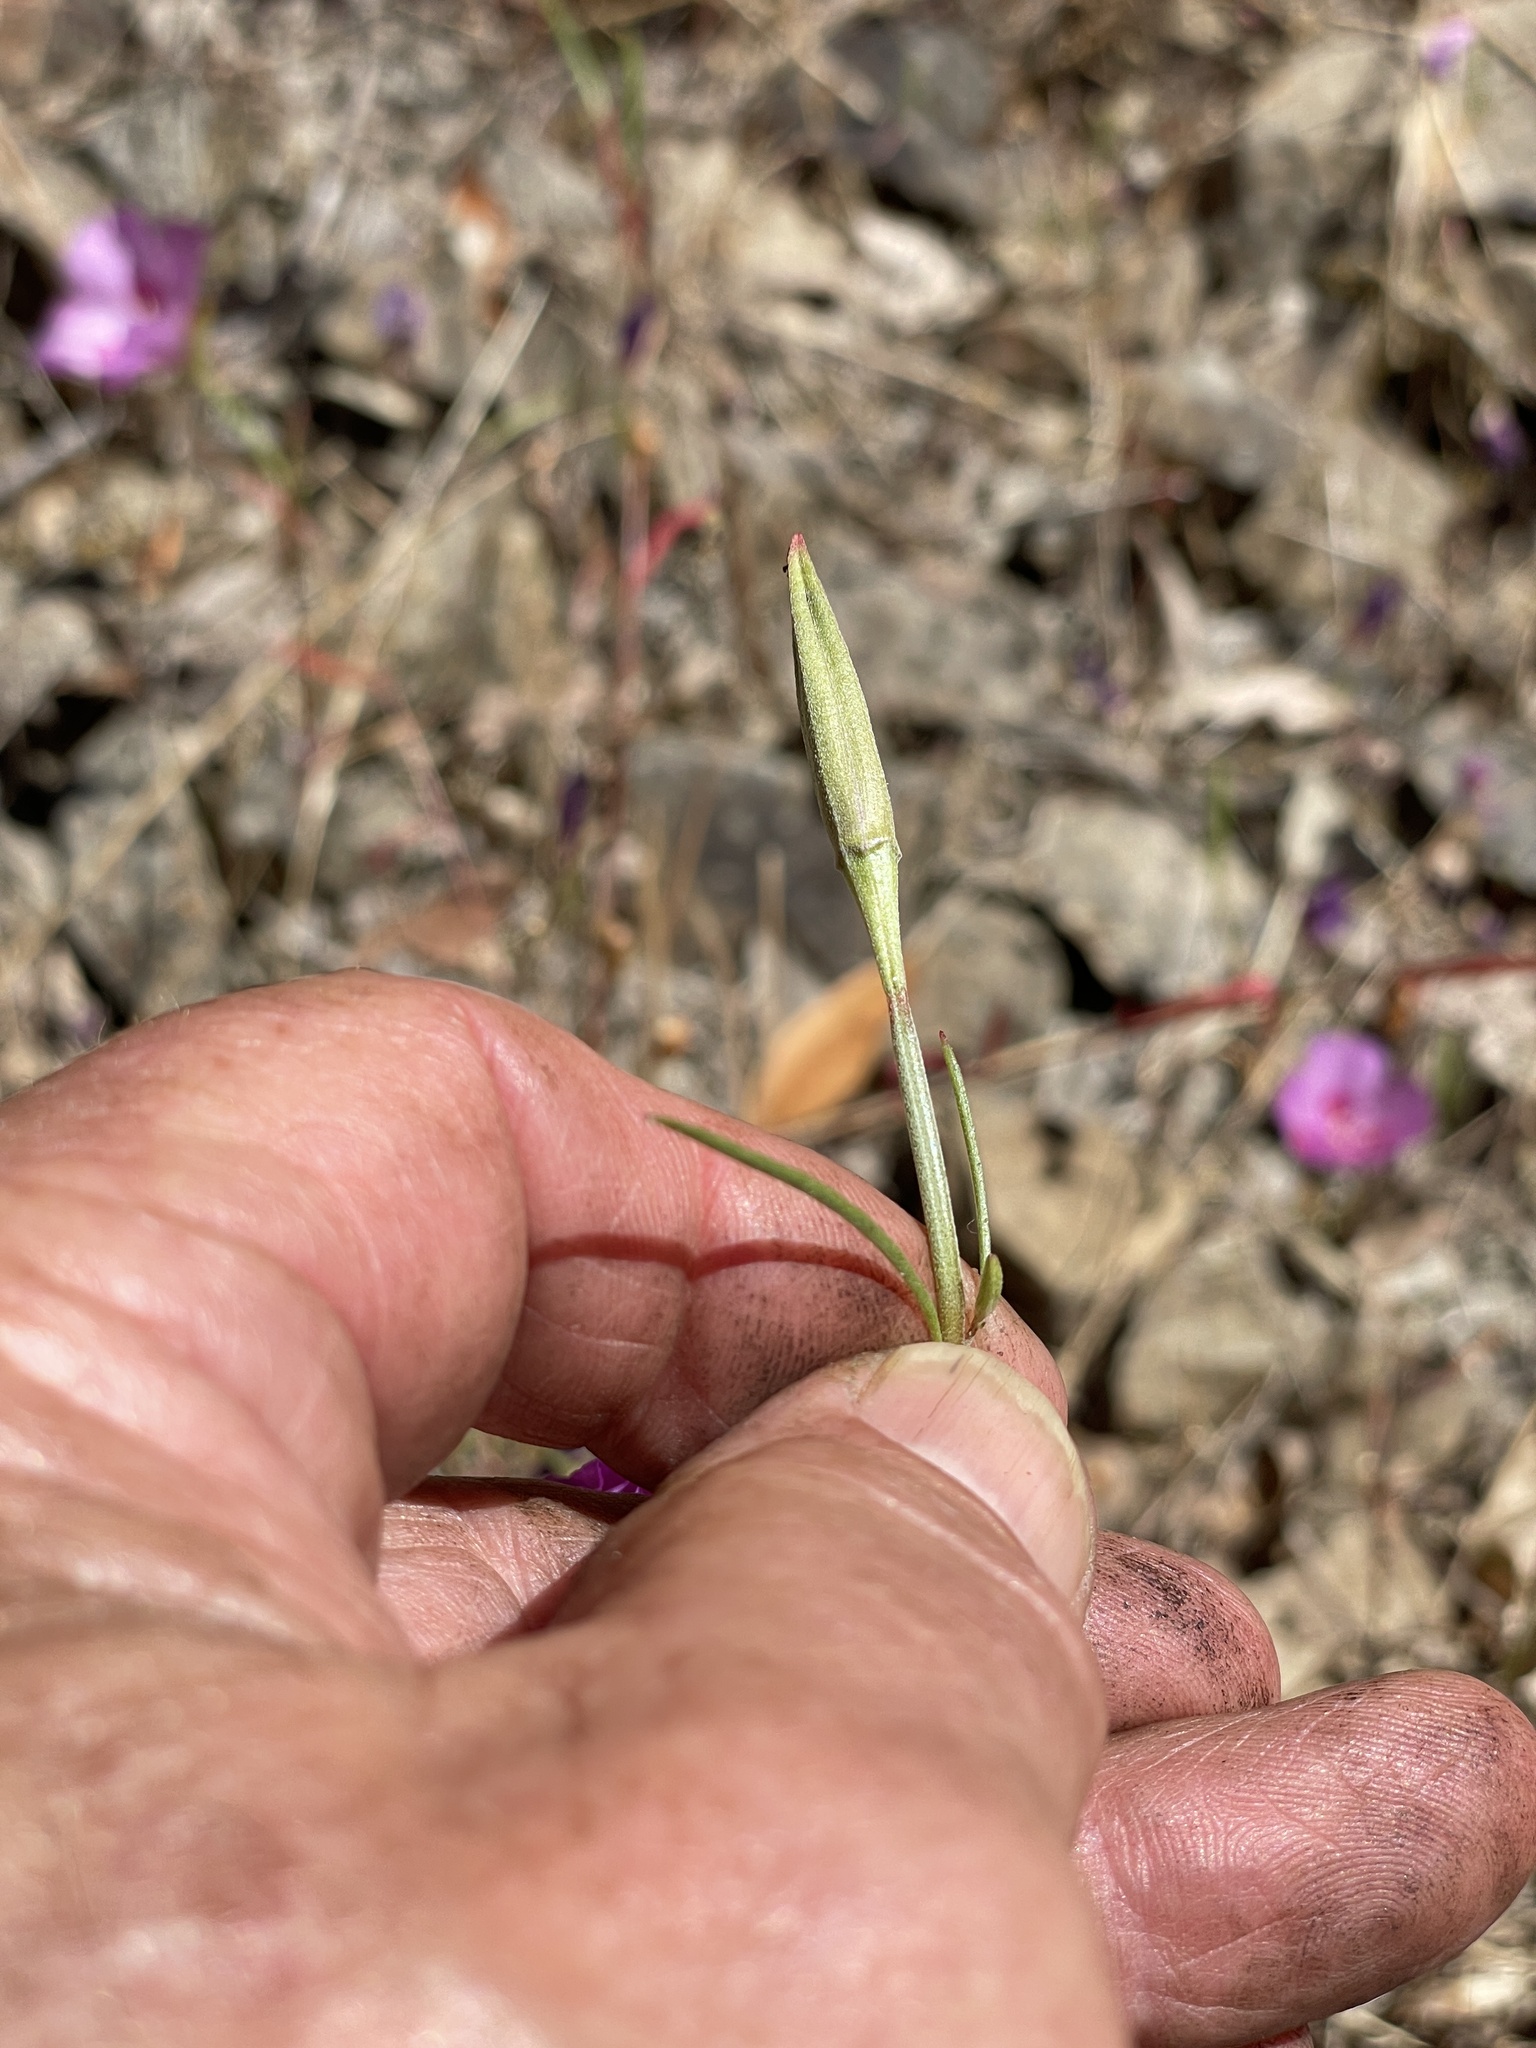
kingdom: Plantae
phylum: Tracheophyta
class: Magnoliopsida
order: Myrtales
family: Onagraceae
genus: Clarkia
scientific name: Clarkia amoena
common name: Godetia
